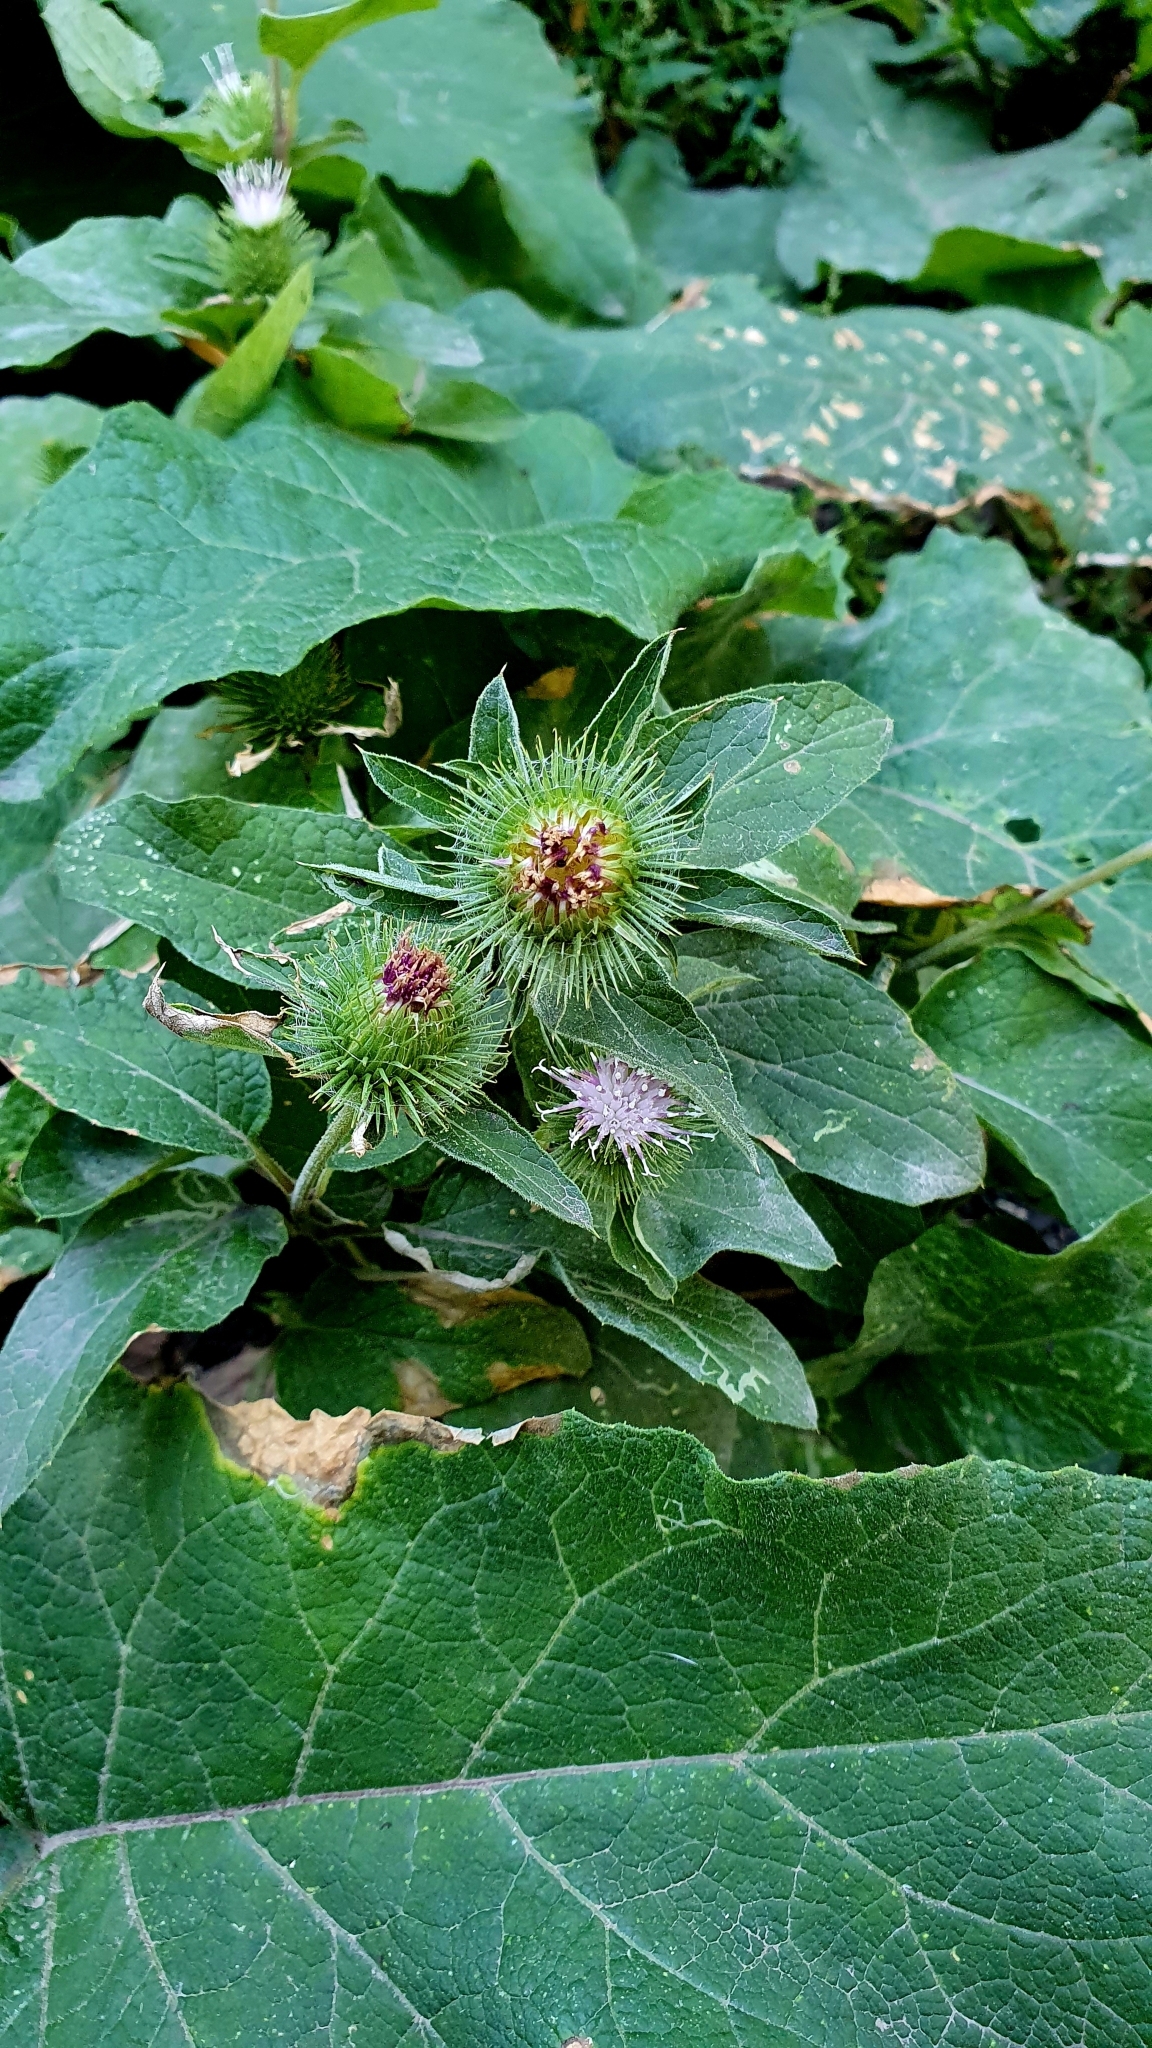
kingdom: Plantae
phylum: Tracheophyta
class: Magnoliopsida
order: Asterales
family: Asteraceae
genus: Arctium
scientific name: Arctium minus
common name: Lesser burdock
